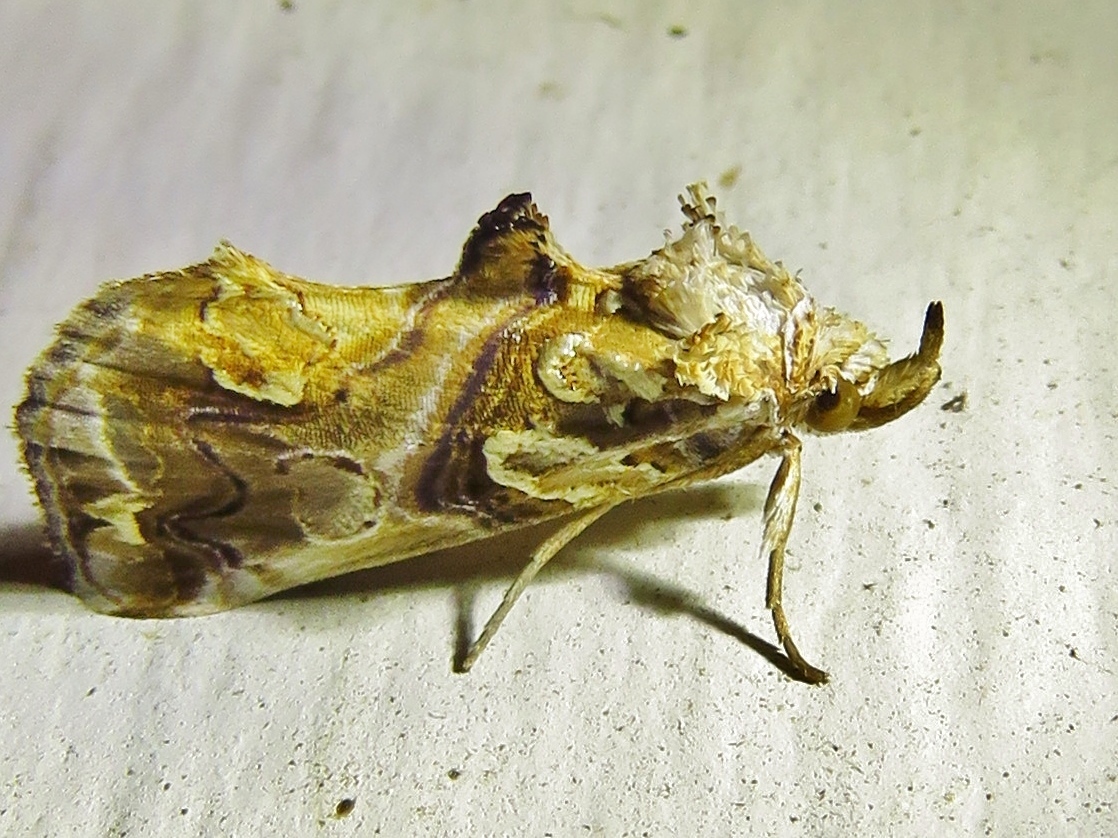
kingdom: Animalia
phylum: Arthropoda
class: Insecta
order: Lepidoptera
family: Erebidae
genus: Plusiodonta
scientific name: Plusiodonta compressipalpis
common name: Moonseed moth
